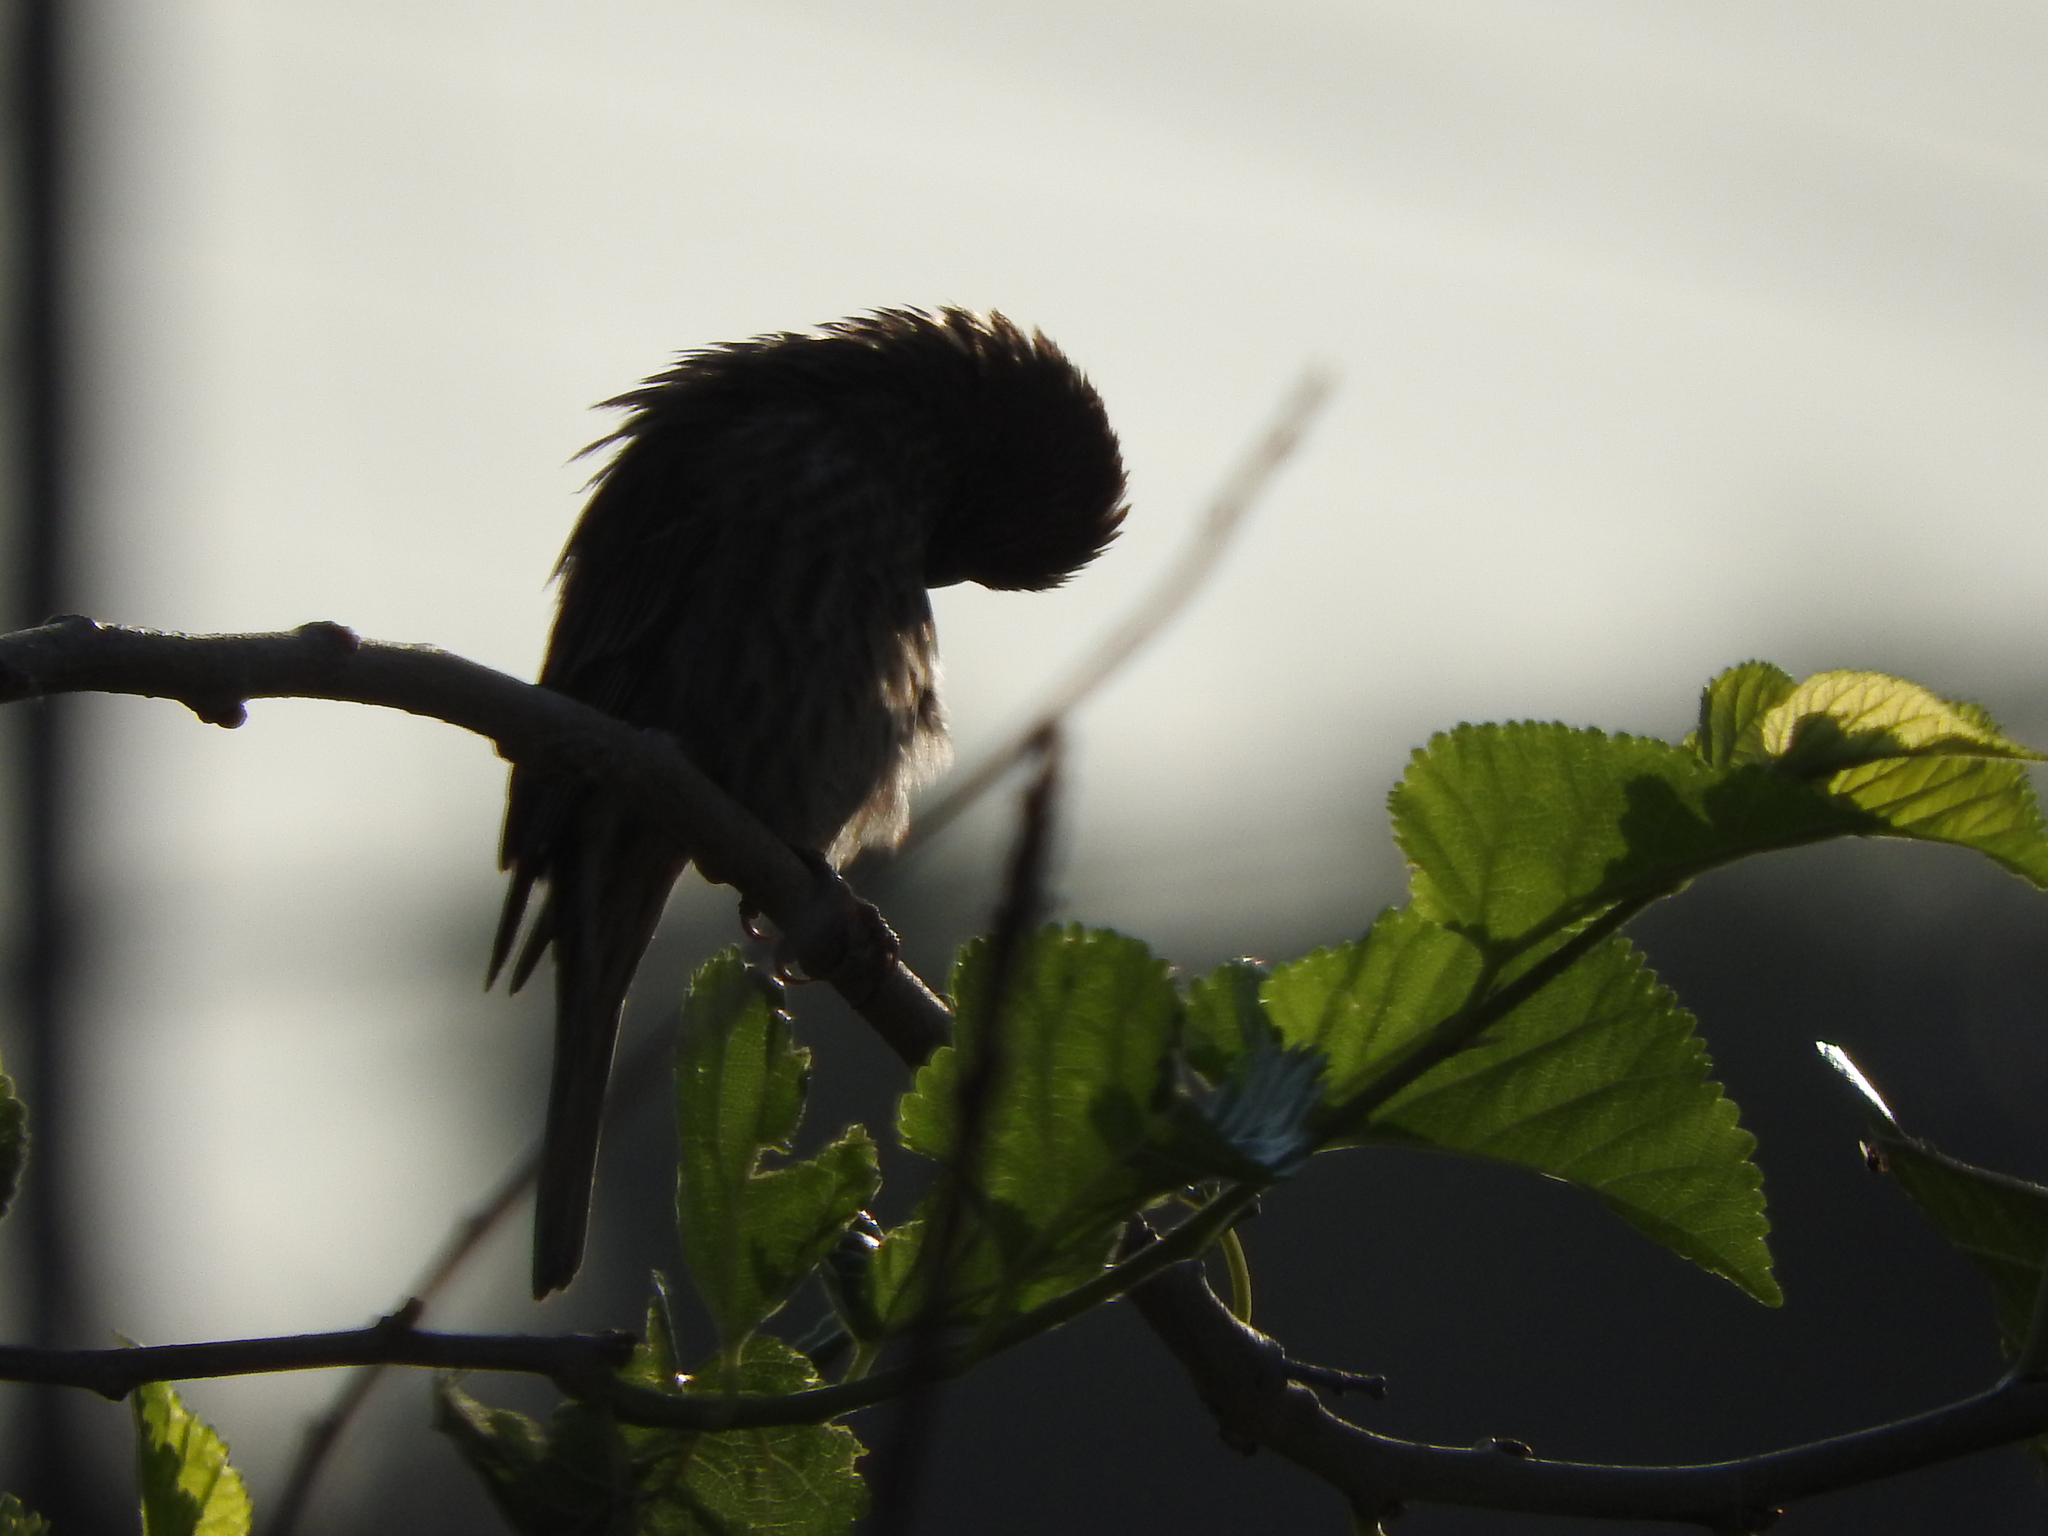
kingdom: Animalia
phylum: Chordata
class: Aves
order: Passeriformes
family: Fringillidae
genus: Haemorhous
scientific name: Haemorhous mexicanus
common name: House finch
